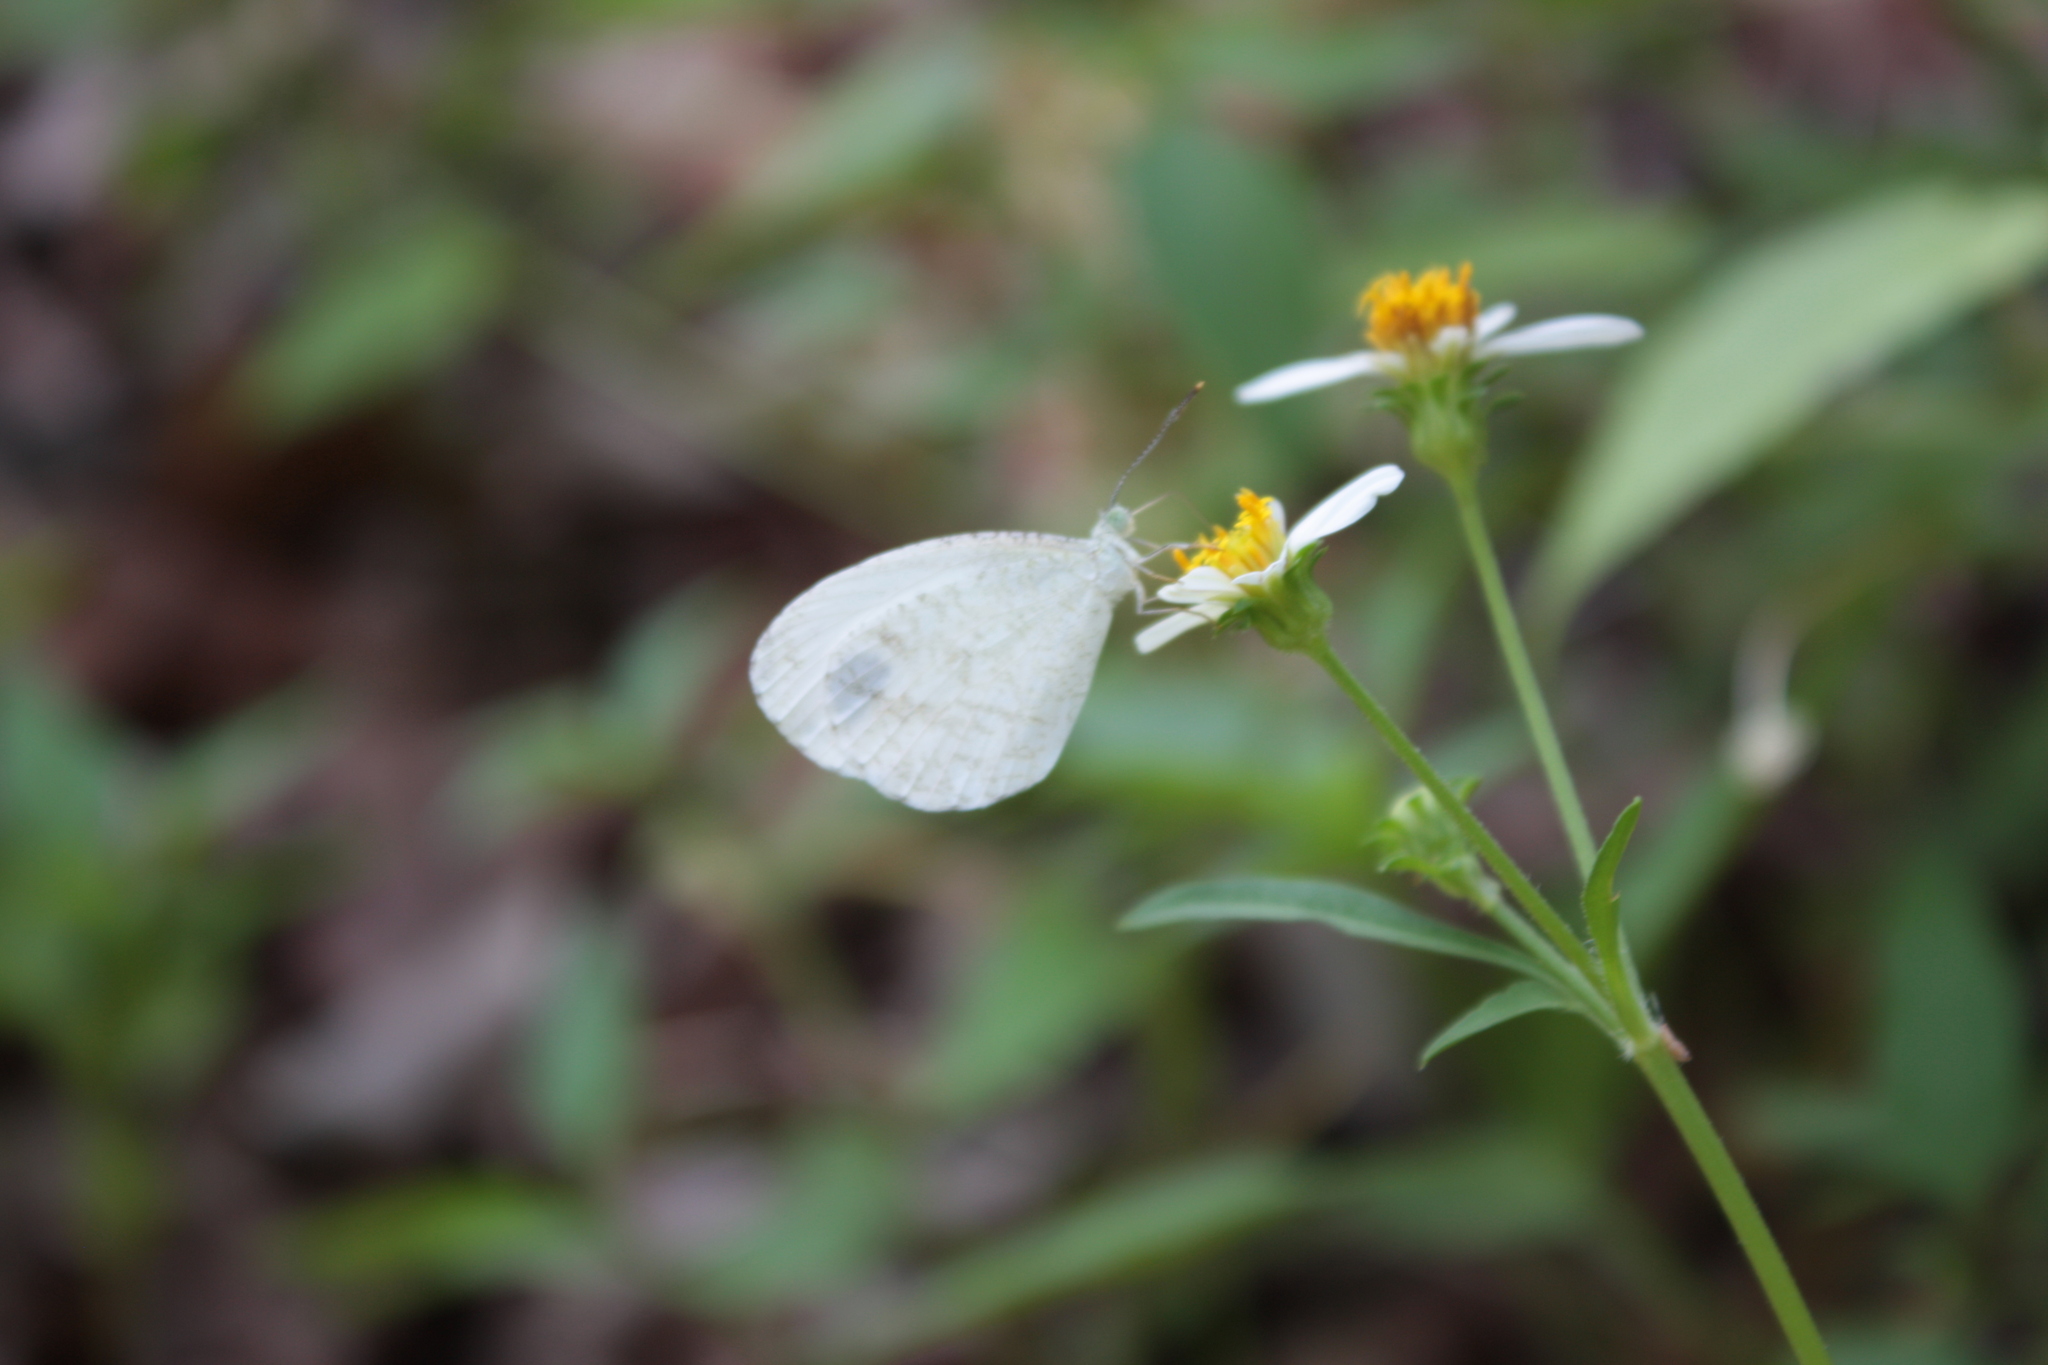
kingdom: Animalia
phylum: Arthropoda
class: Insecta
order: Lepidoptera
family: Pieridae
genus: Leptosia
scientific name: Leptosia nina
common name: Psyche
